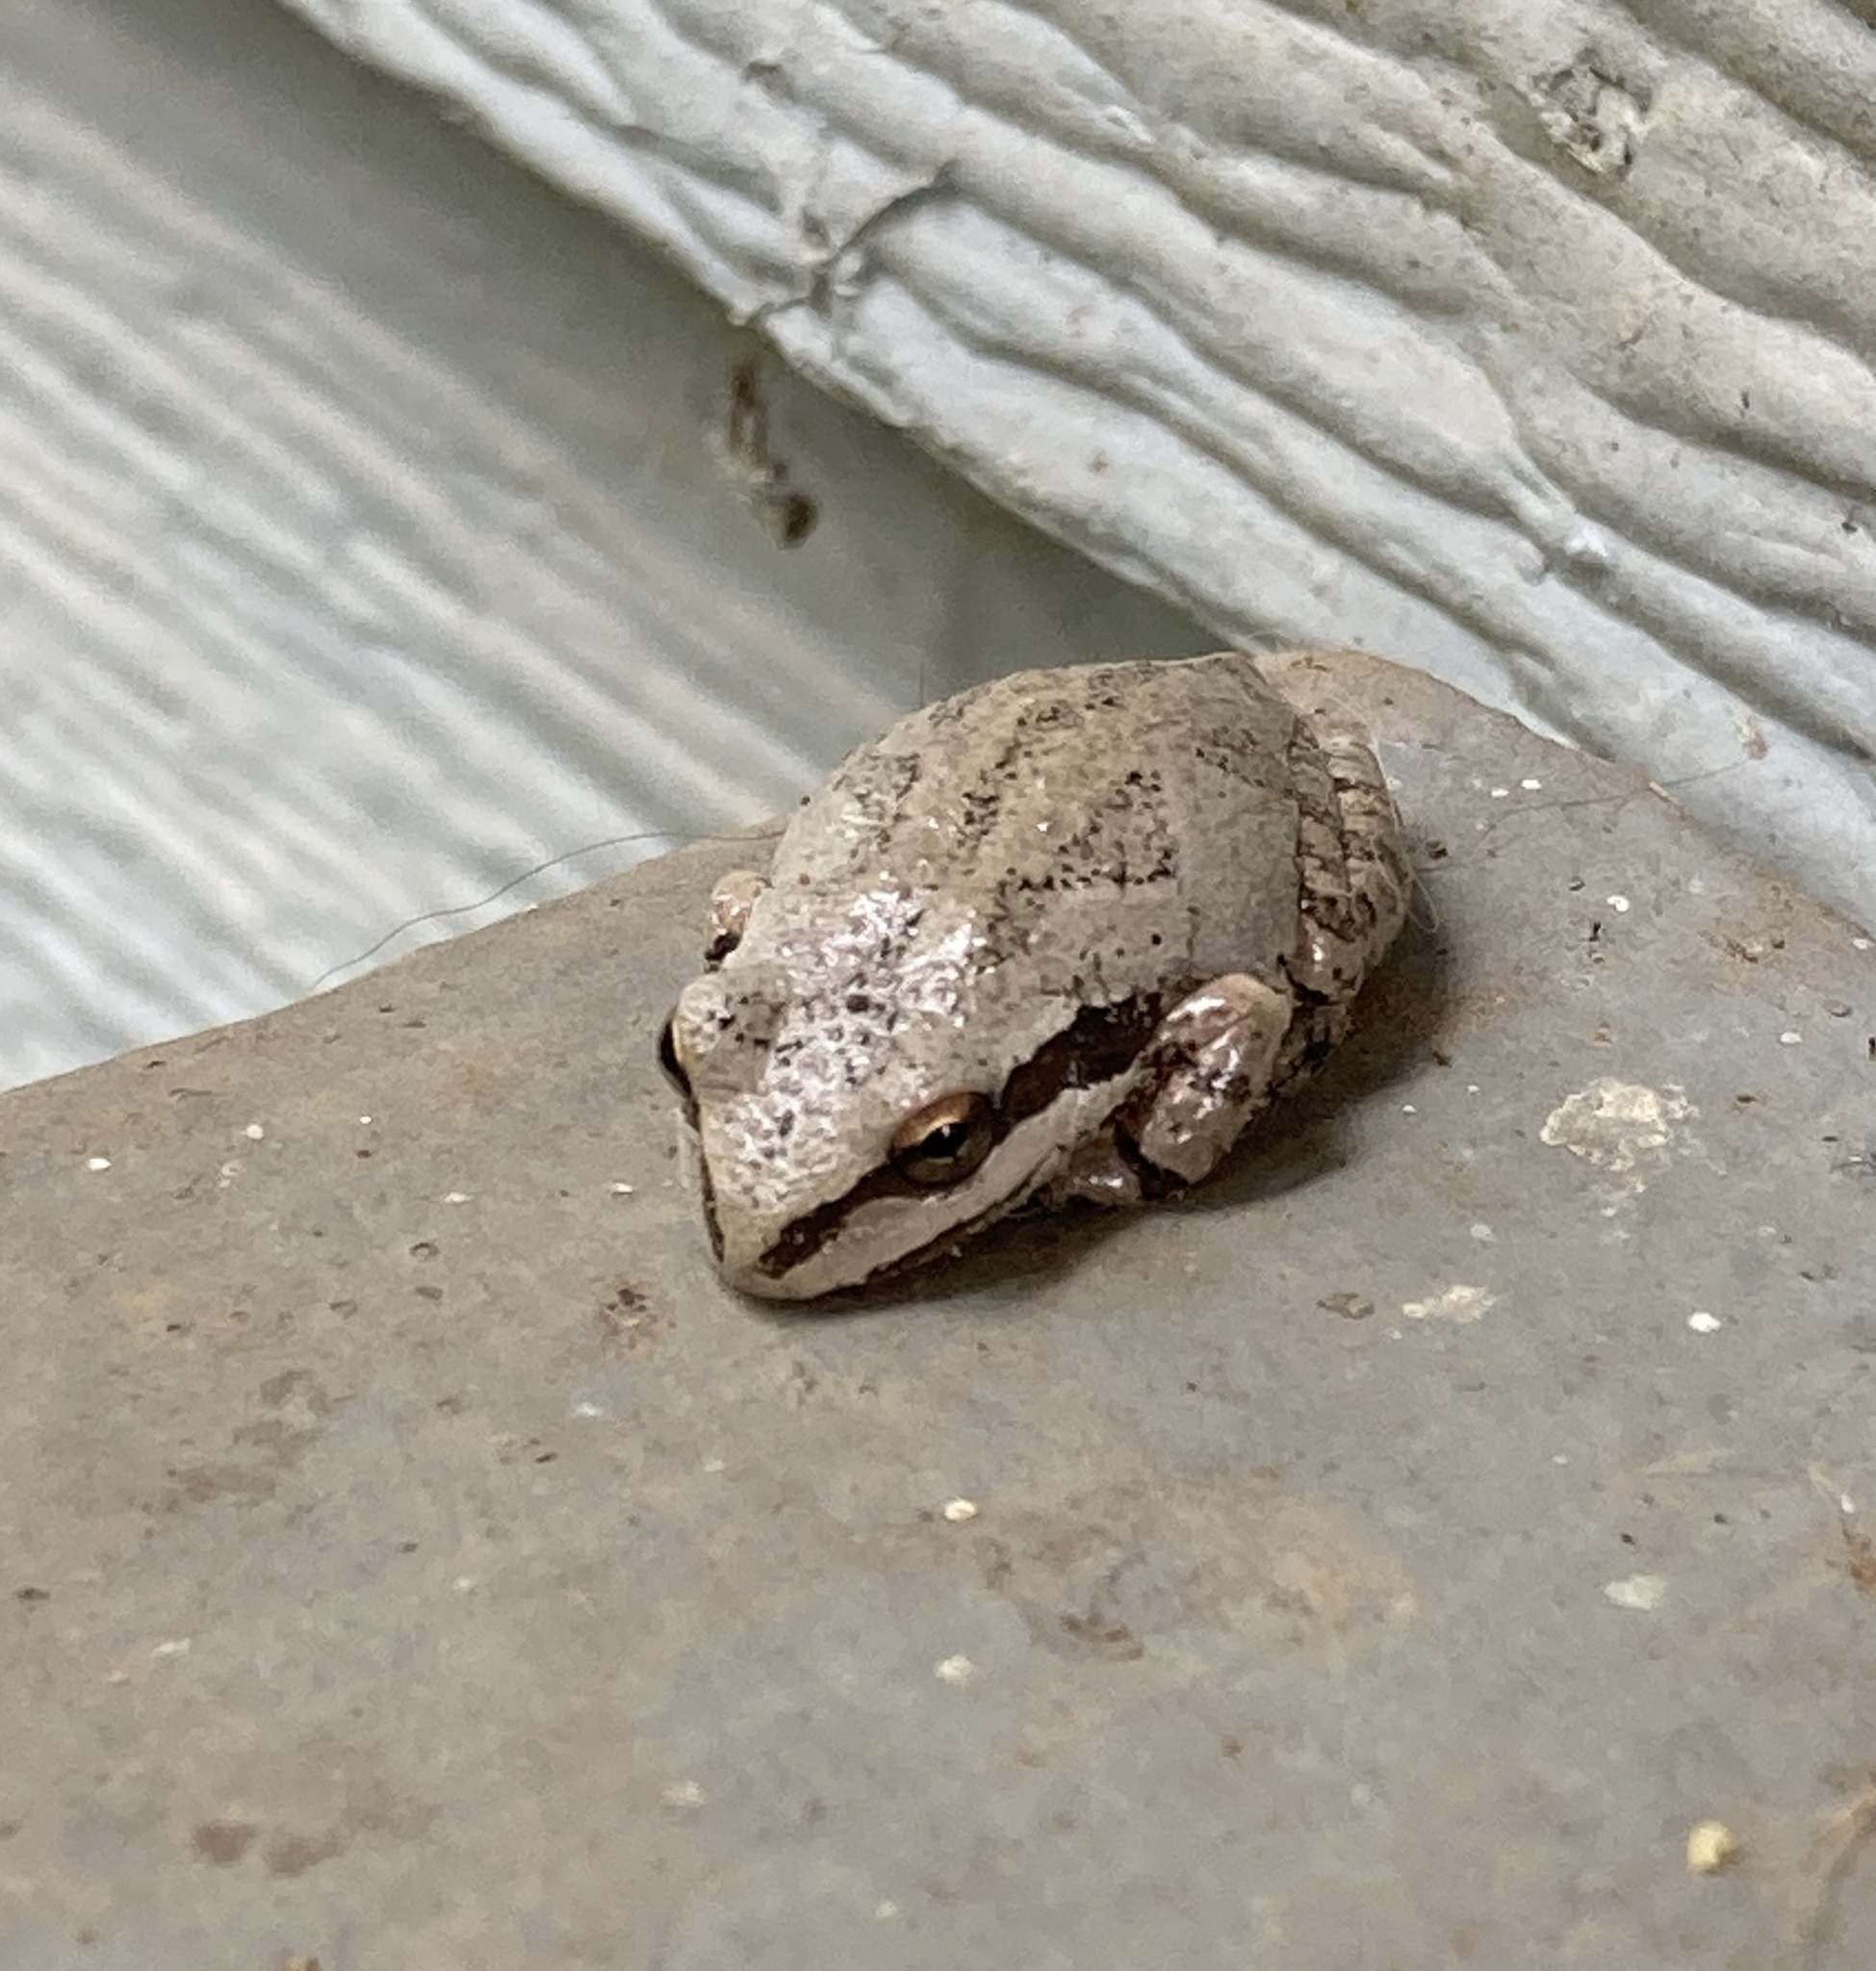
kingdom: Animalia
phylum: Chordata
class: Amphibia
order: Anura
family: Hylidae
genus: Pseudacris
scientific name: Pseudacris regilla
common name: Pacific chorus frog
